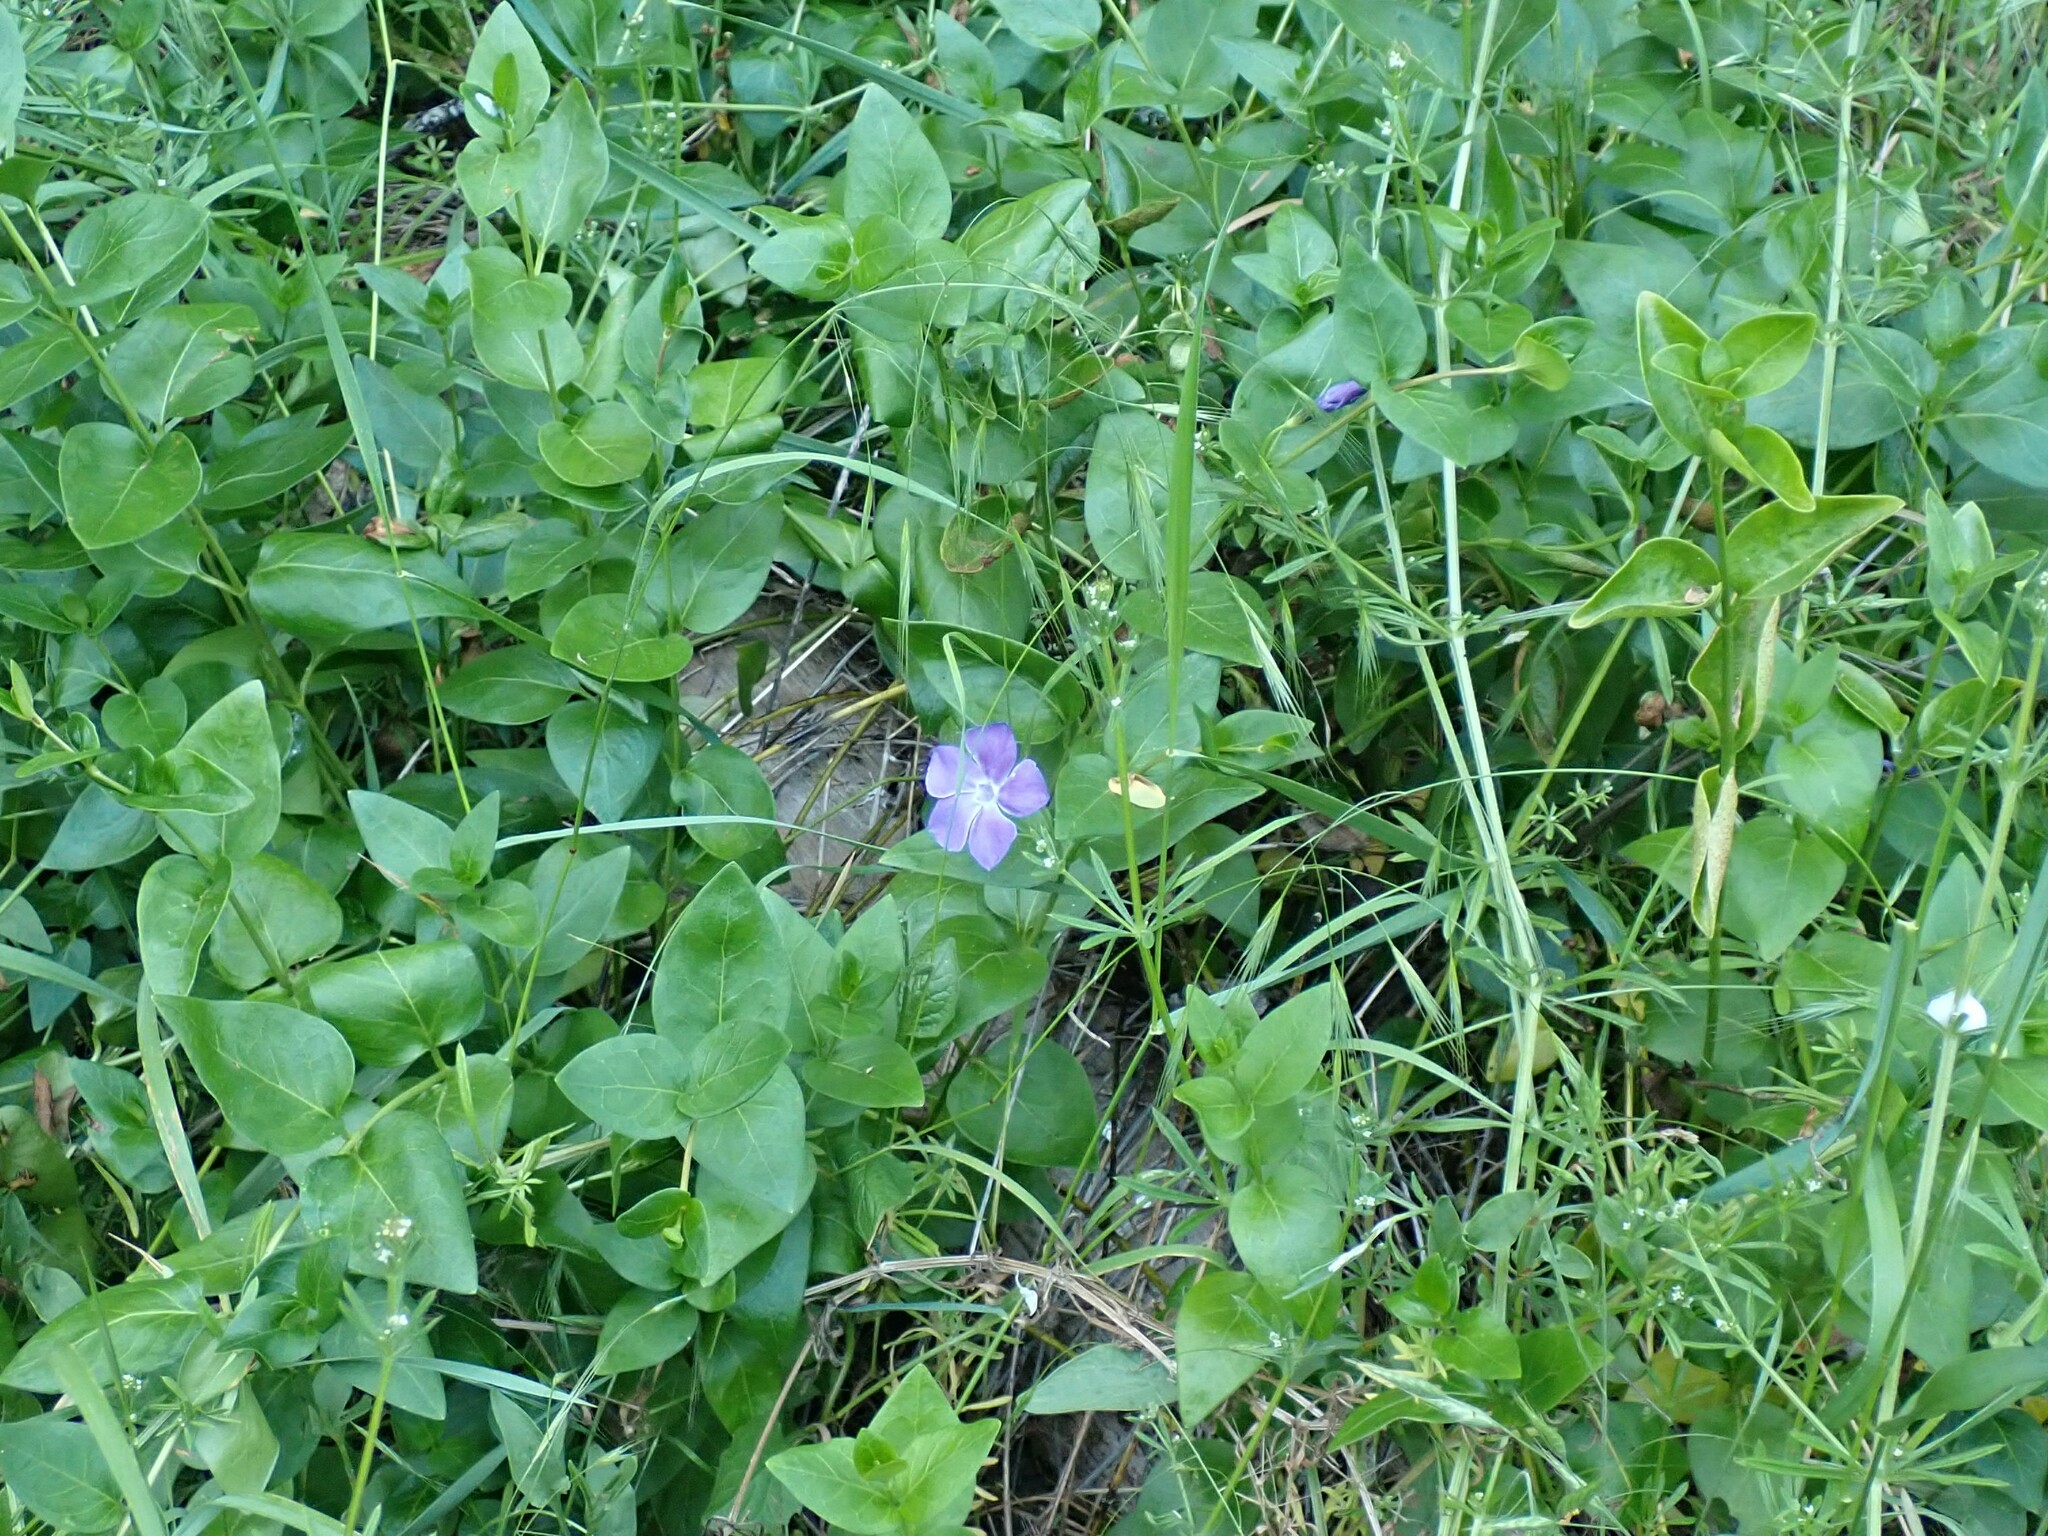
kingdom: Plantae
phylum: Tracheophyta
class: Magnoliopsida
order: Gentianales
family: Apocynaceae
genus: Vinca
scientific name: Vinca major
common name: Greater periwinkle
